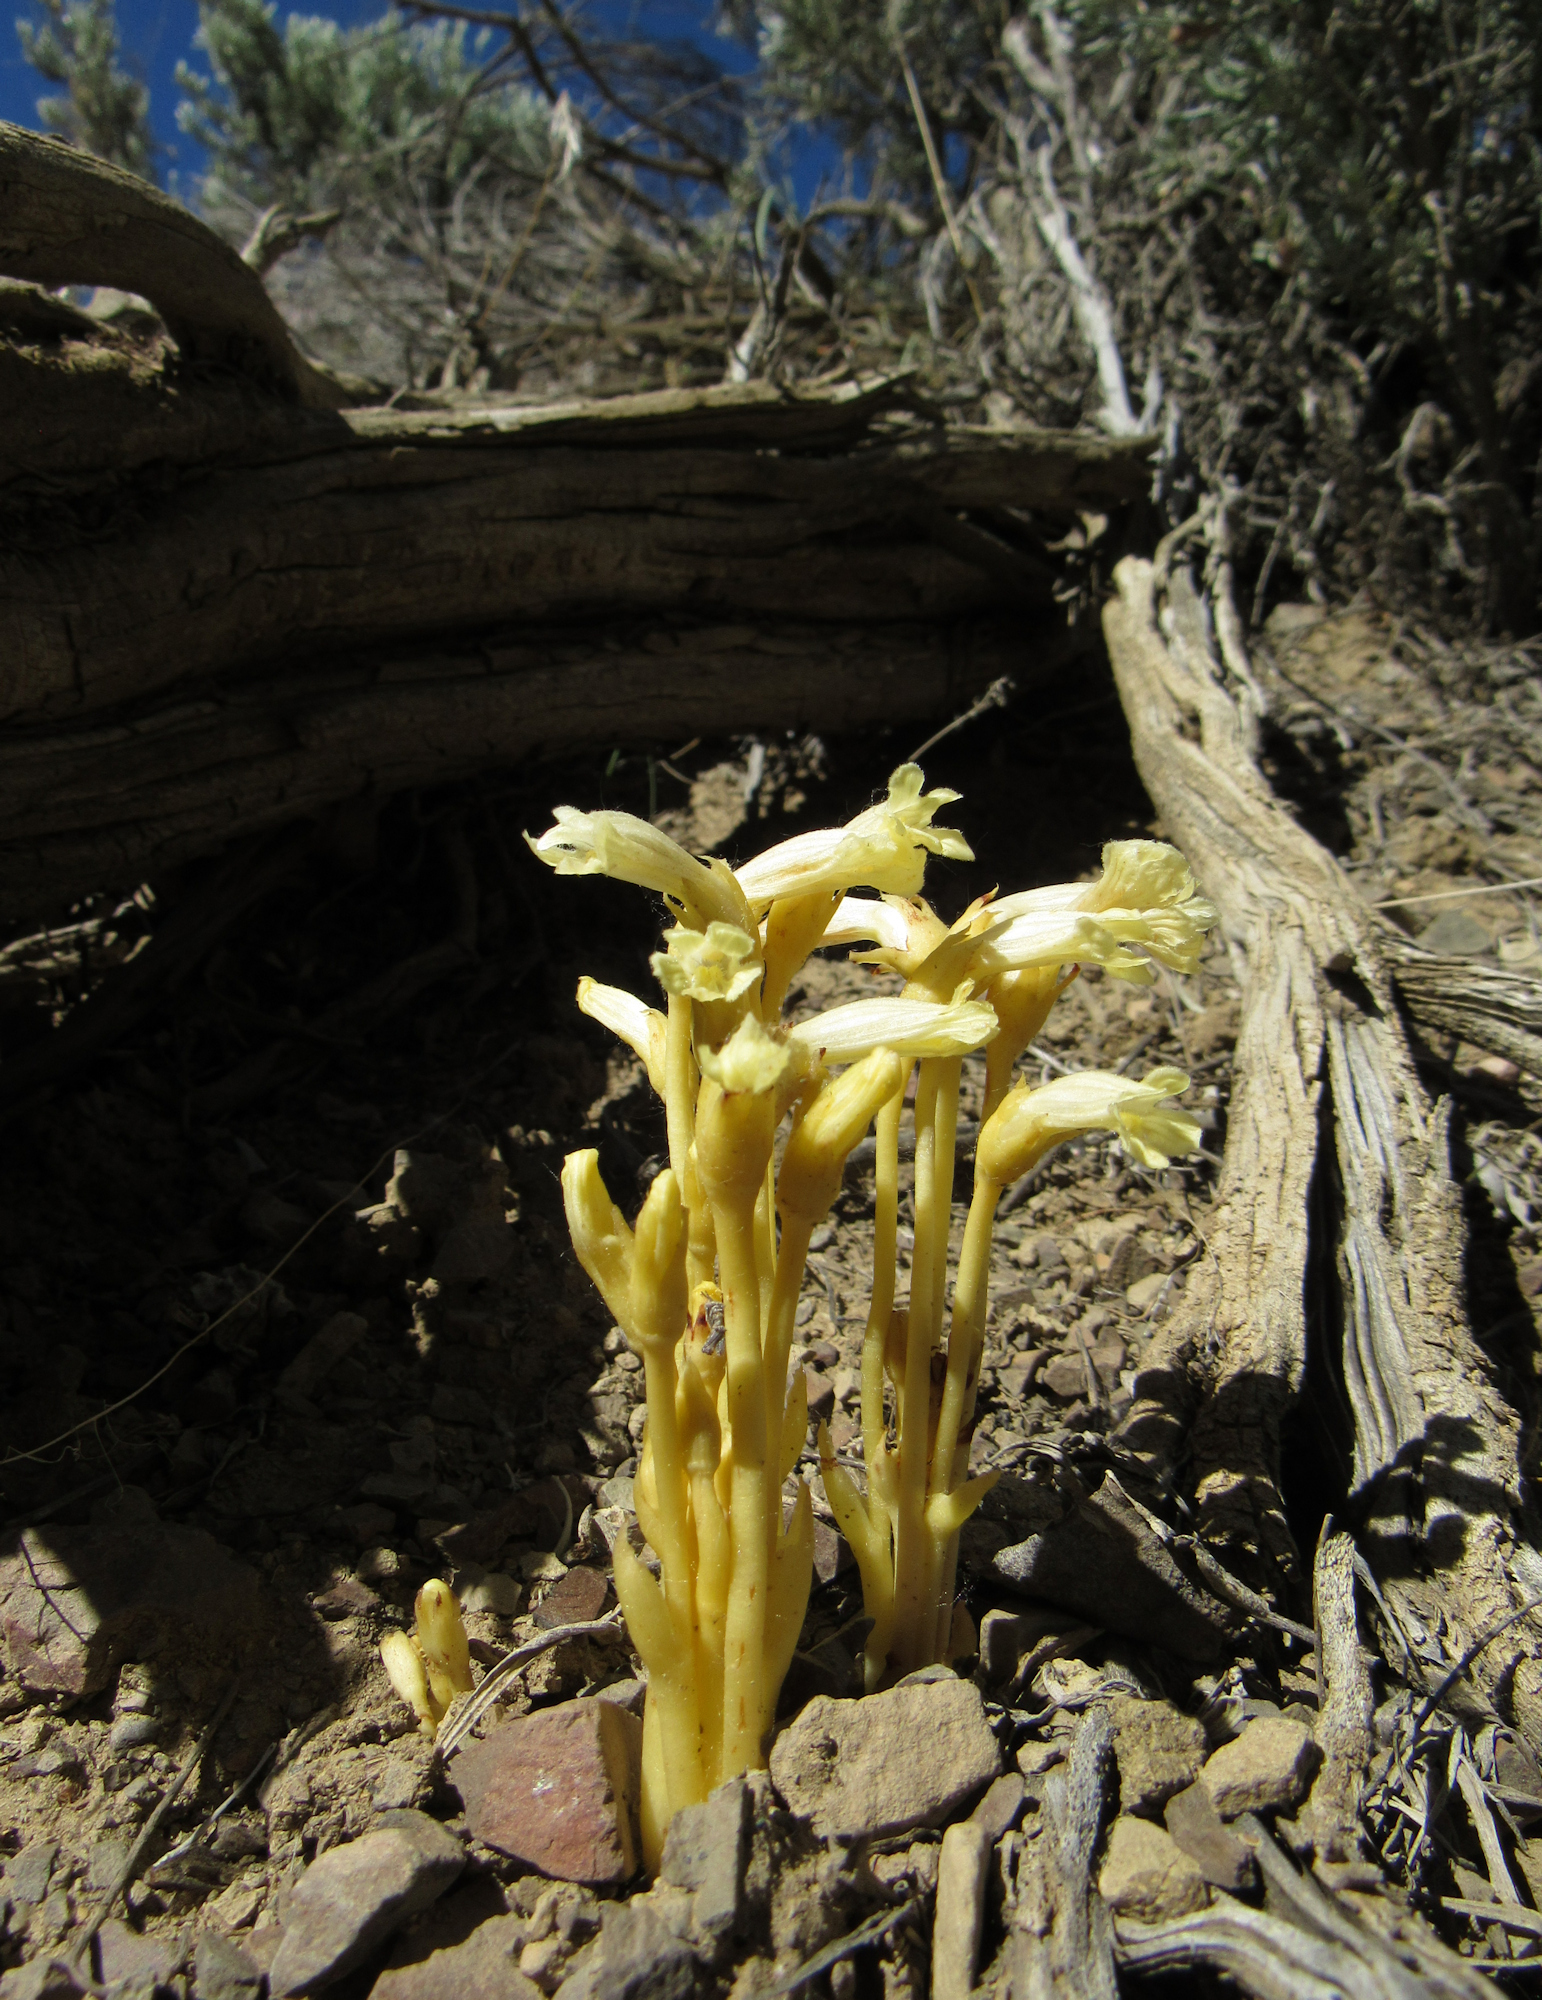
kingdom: Plantae
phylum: Tracheophyta
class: Magnoliopsida
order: Lamiales
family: Orobanchaceae
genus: Aphyllon
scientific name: Aphyllon franciscanum
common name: San francisco broomrape
